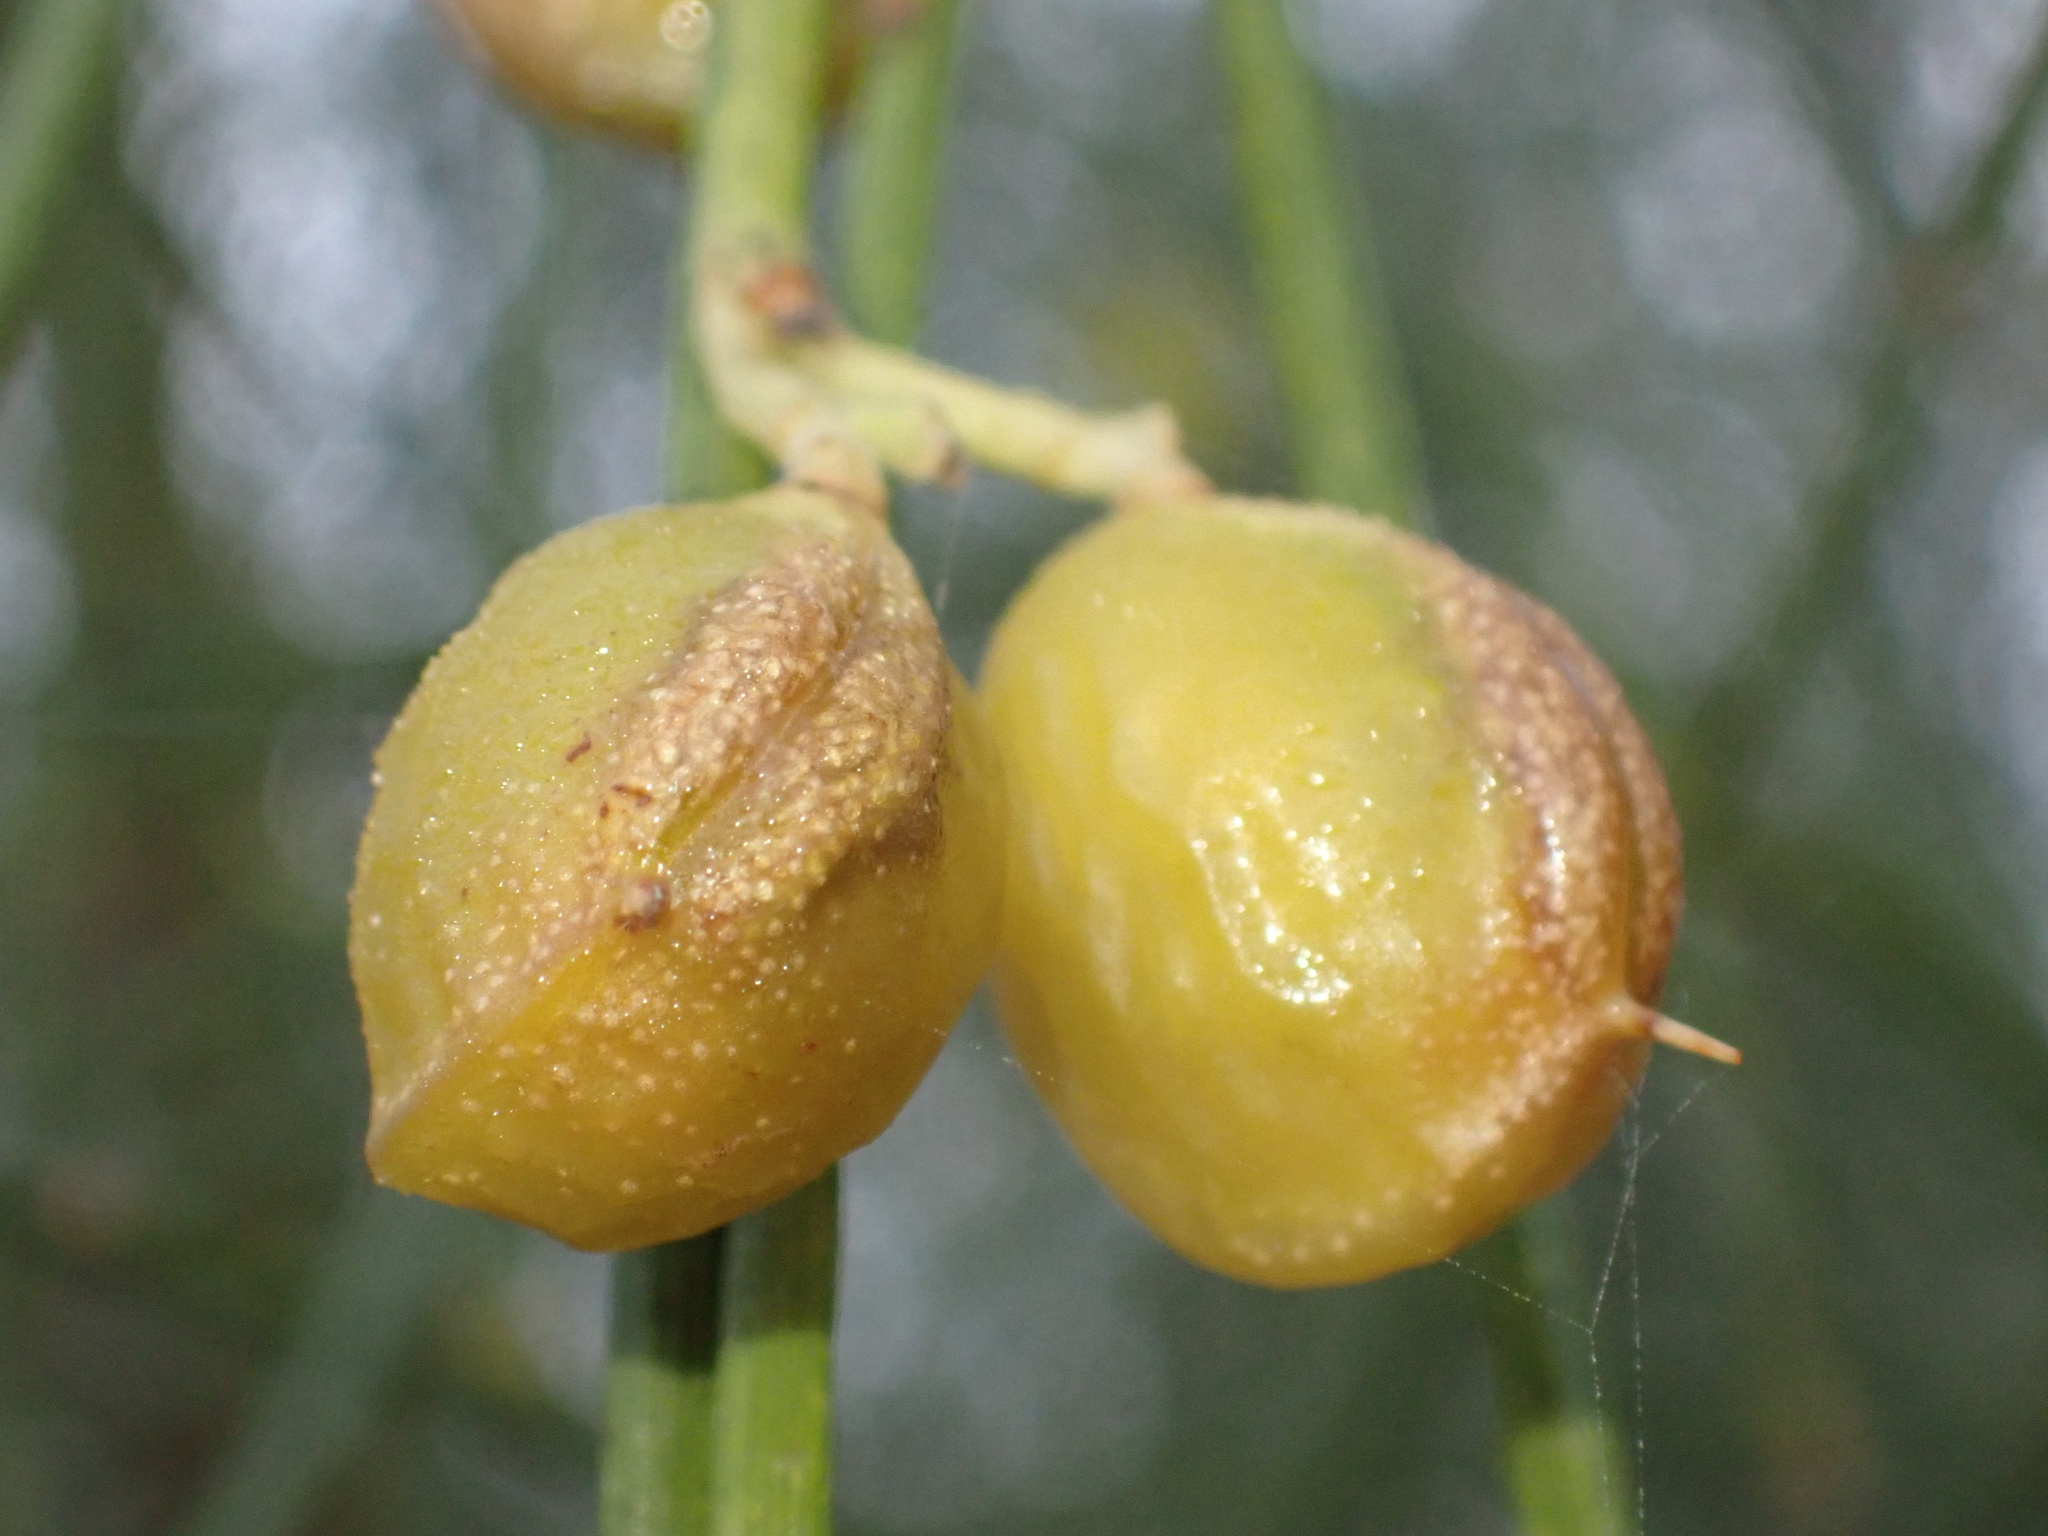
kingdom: Plantae
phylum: Tracheophyta
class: Magnoliopsida
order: Fabales
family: Fabaceae
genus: Retama
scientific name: Retama monosperma
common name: Bridal broom
